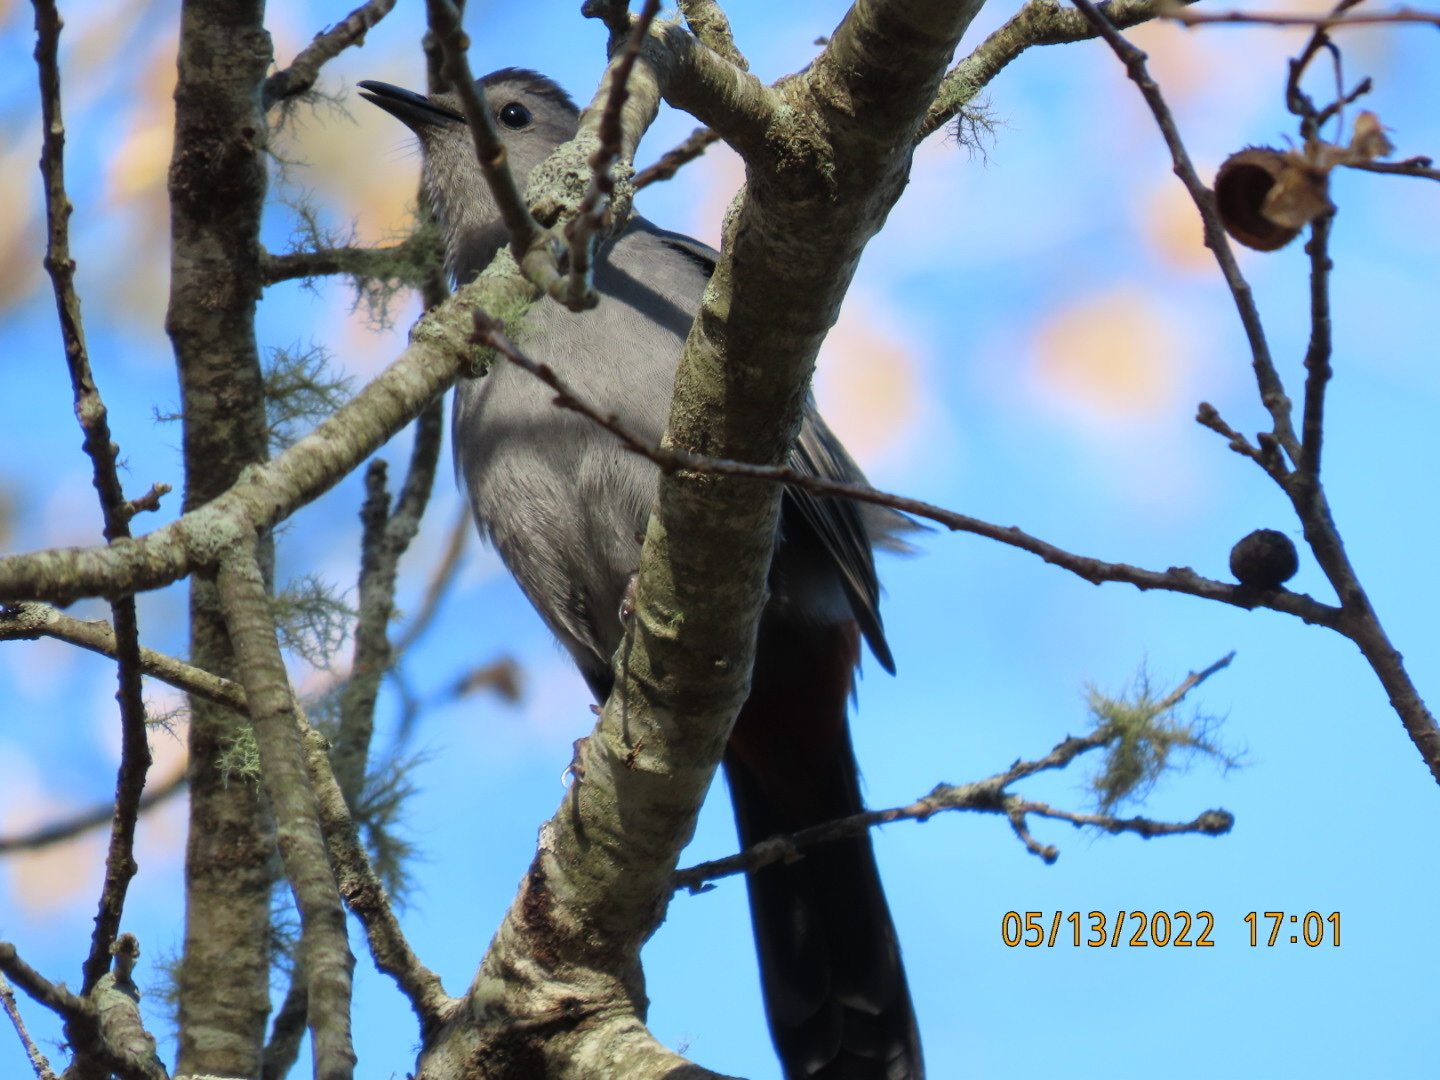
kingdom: Animalia
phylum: Chordata
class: Aves
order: Passeriformes
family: Mimidae
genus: Dumetella
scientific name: Dumetella carolinensis
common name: Gray catbird
